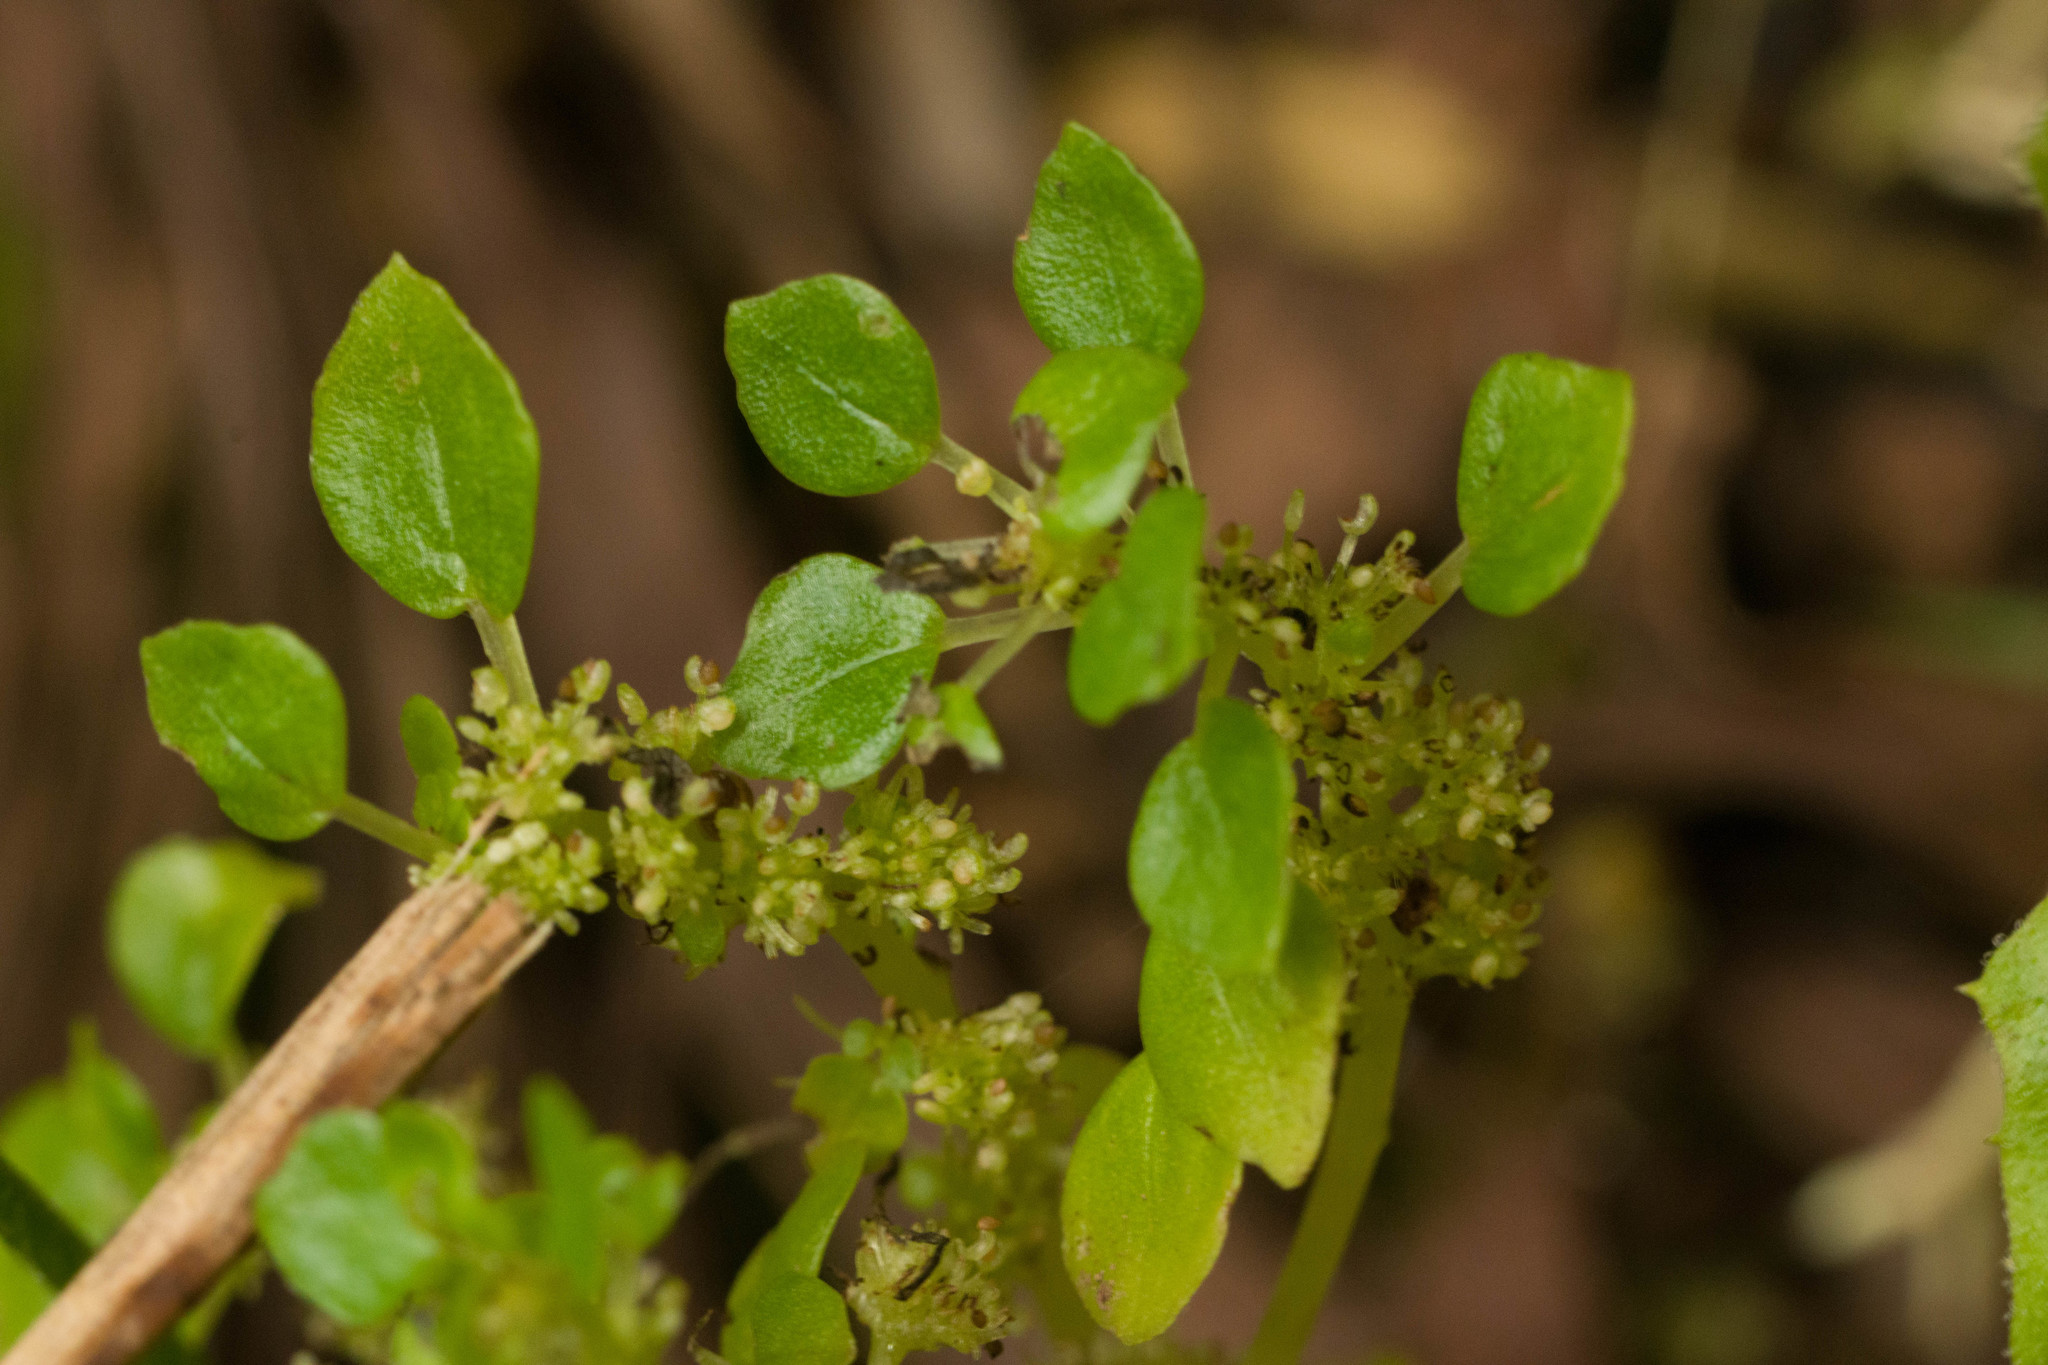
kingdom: Plantae
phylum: Tracheophyta
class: Magnoliopsida
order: Rosales
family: Urticaceae
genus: Pilea
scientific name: Pilea peploides
